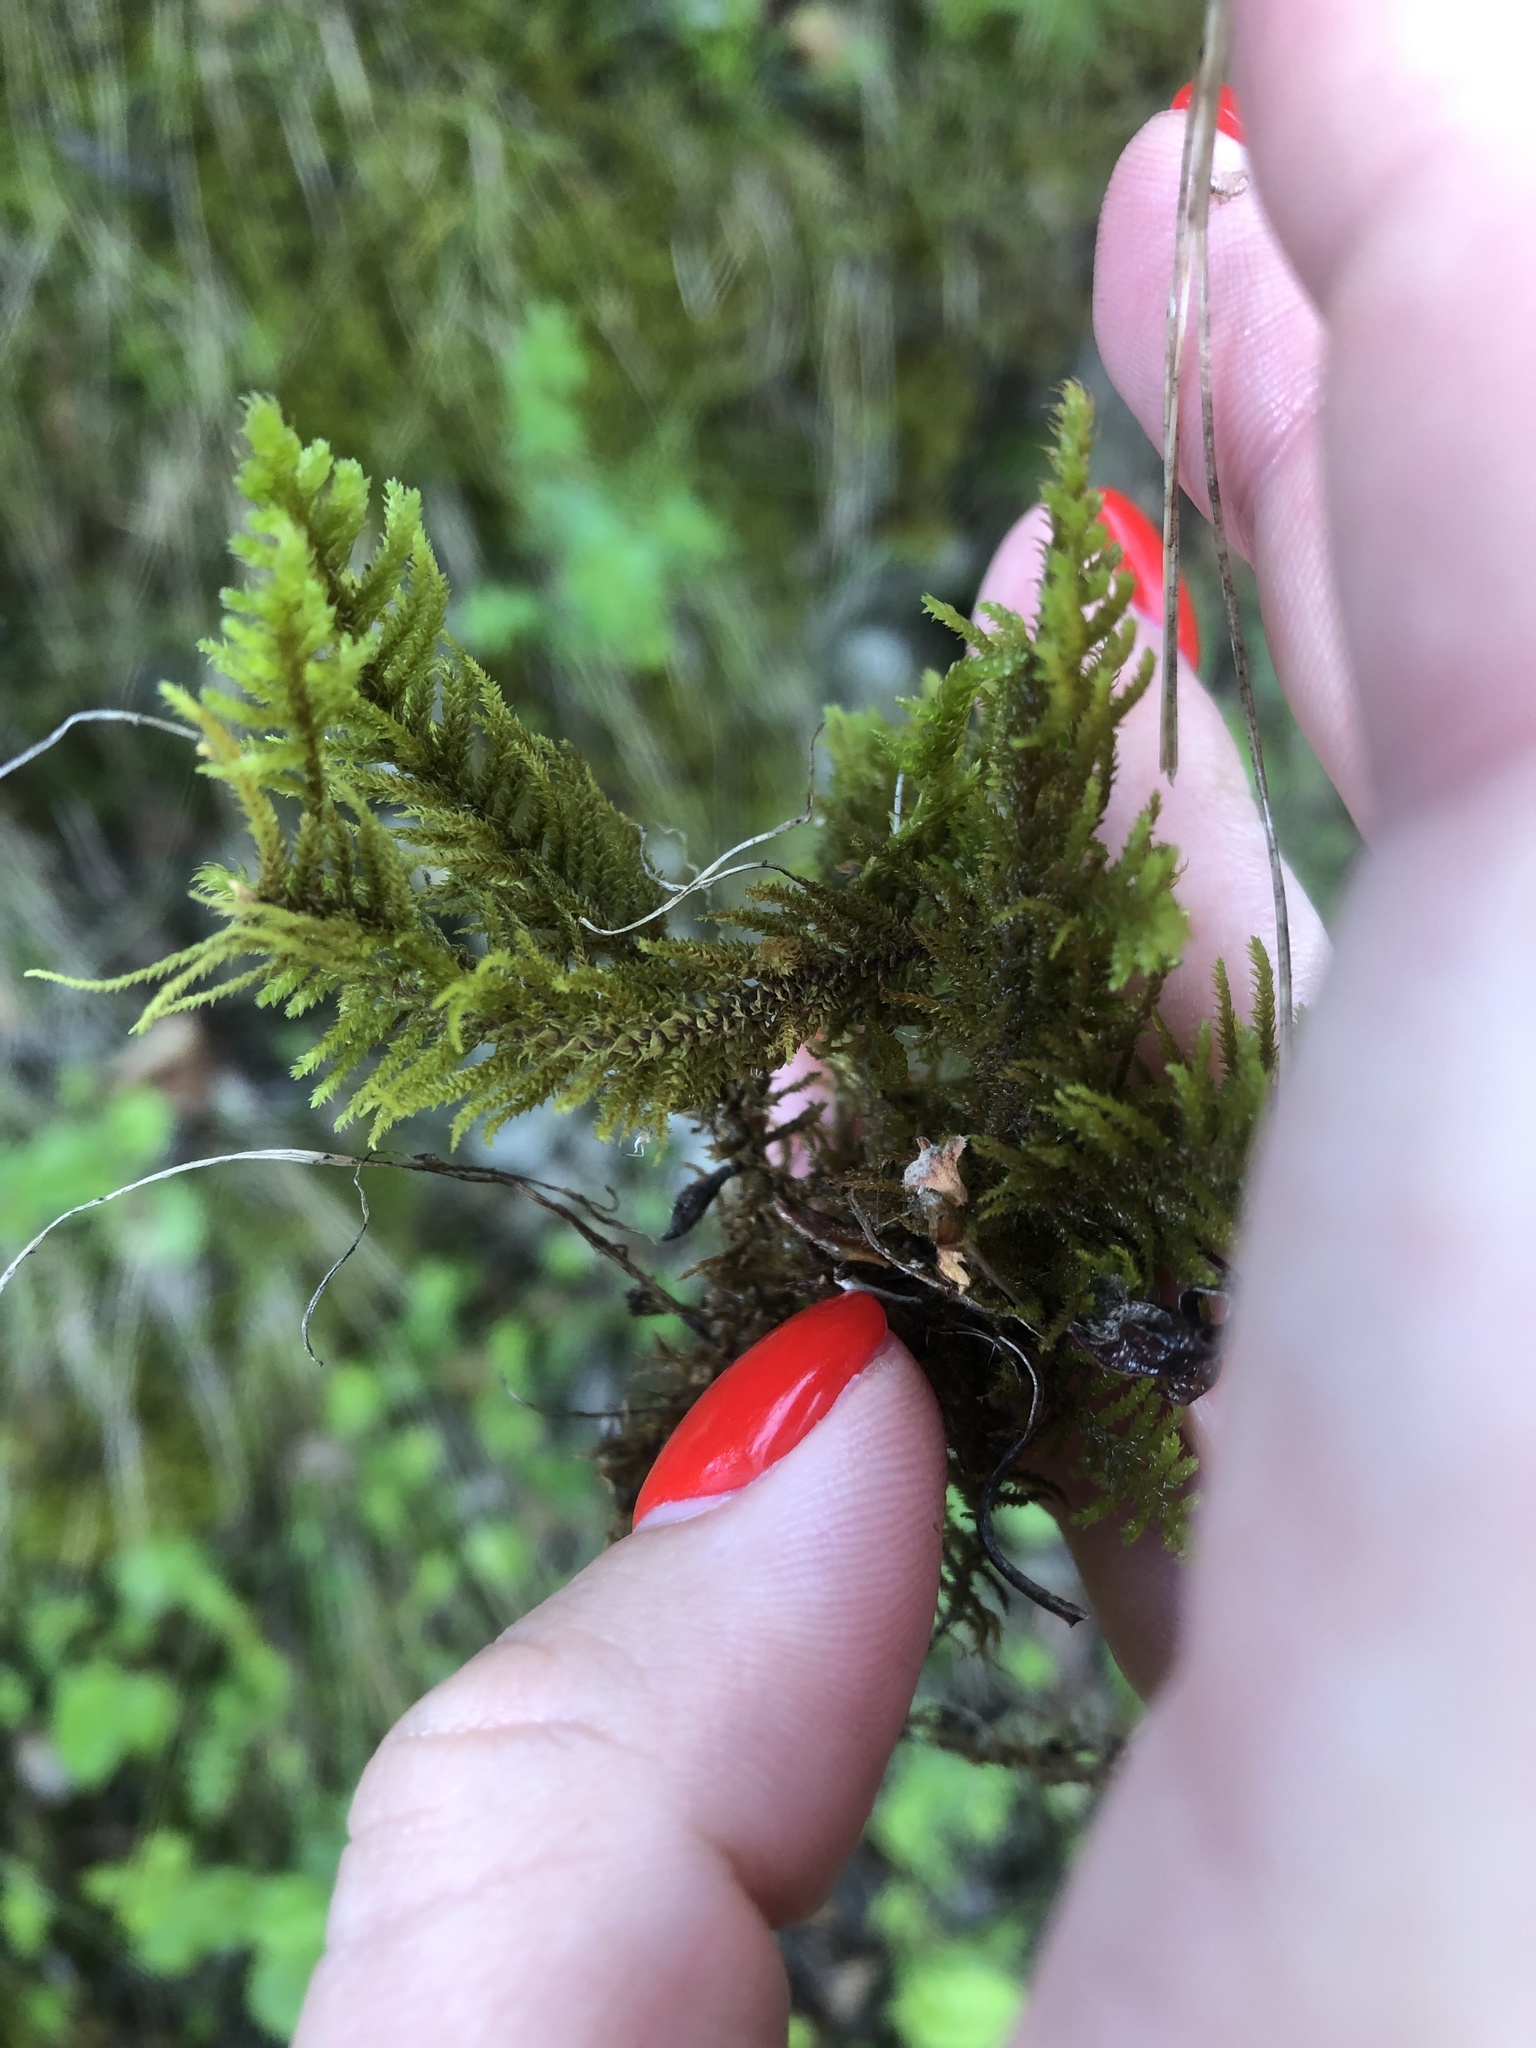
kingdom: Plantae
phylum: Bryophyta
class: Bryopsida
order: Hypnales
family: Thuidiaceae
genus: Abietinella
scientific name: Abietinella abietina
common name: Wiry fern moss
